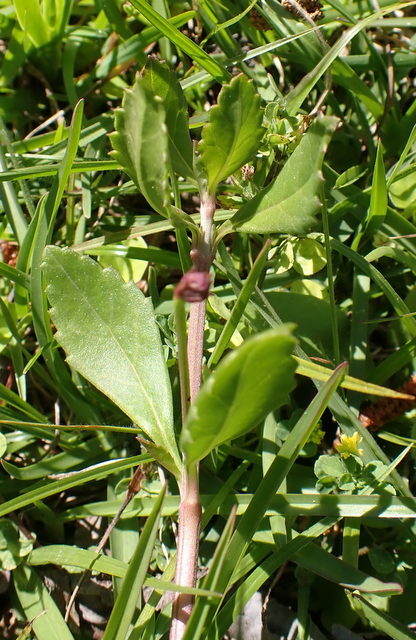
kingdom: Plantae
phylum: Tracheophyta
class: Magnoliopsida
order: Lamiales
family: Verbenaceae
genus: Phyla
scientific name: Phyla nodiflora
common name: Frogfruit
